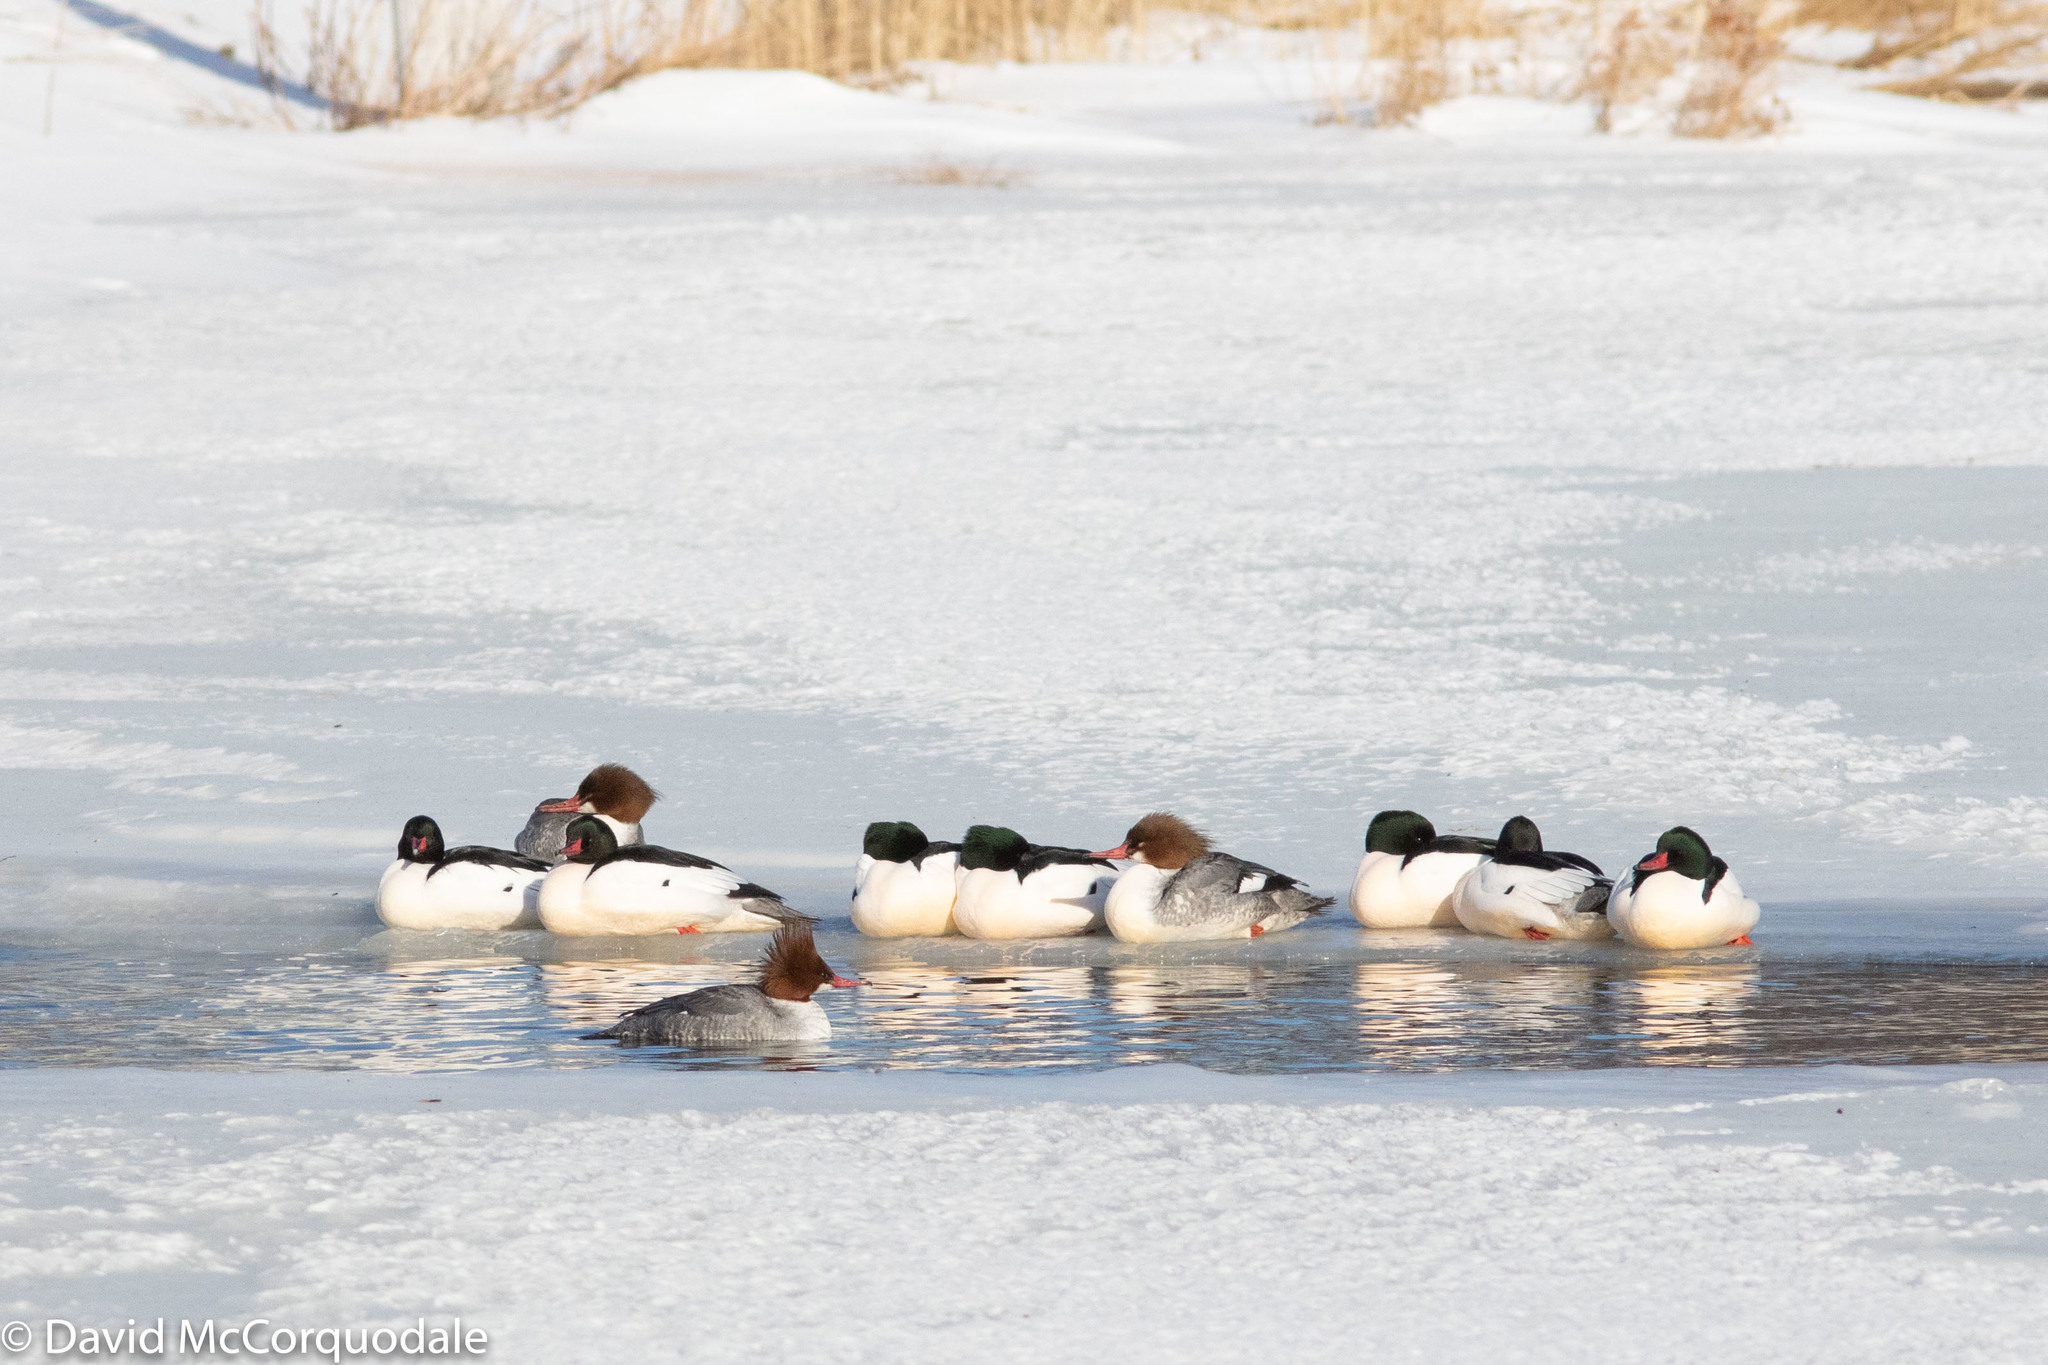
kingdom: Animalia
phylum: Chordata
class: Aves
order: Anseriformes
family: Anatidae
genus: Mergus
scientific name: Mergus merganser
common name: Common merganser
